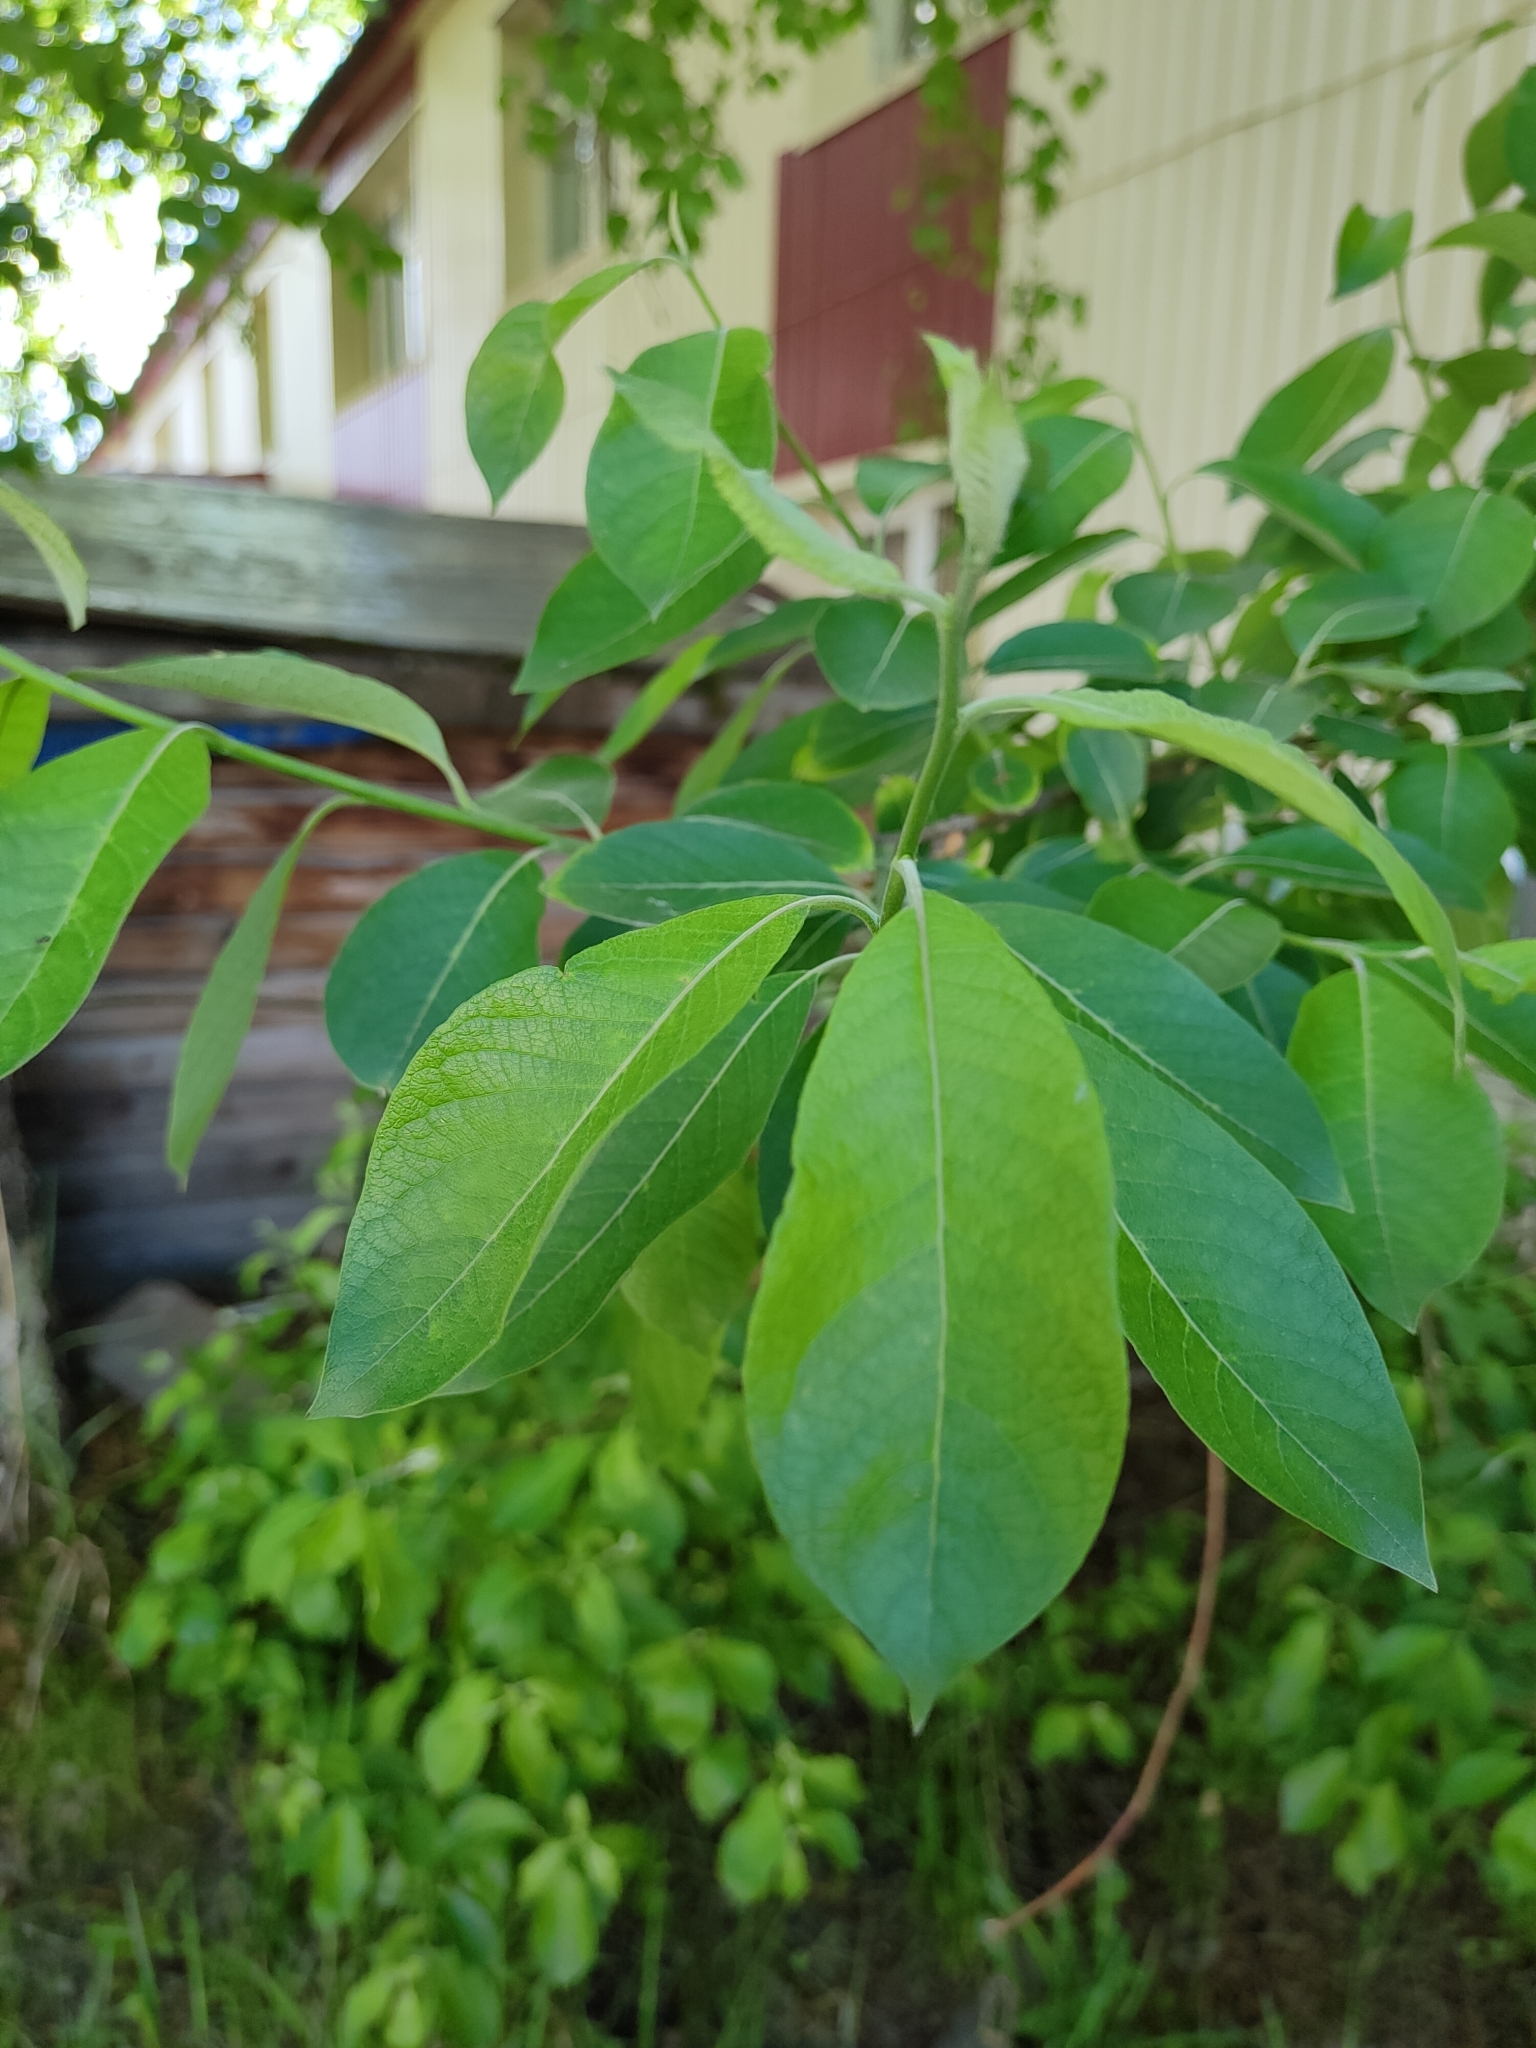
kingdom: Plantae
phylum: Tracheophyta
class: Magnoliopsida
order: Malpighiales
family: Salicaceae
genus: Salix
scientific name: Salix caprea
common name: Goat willow
